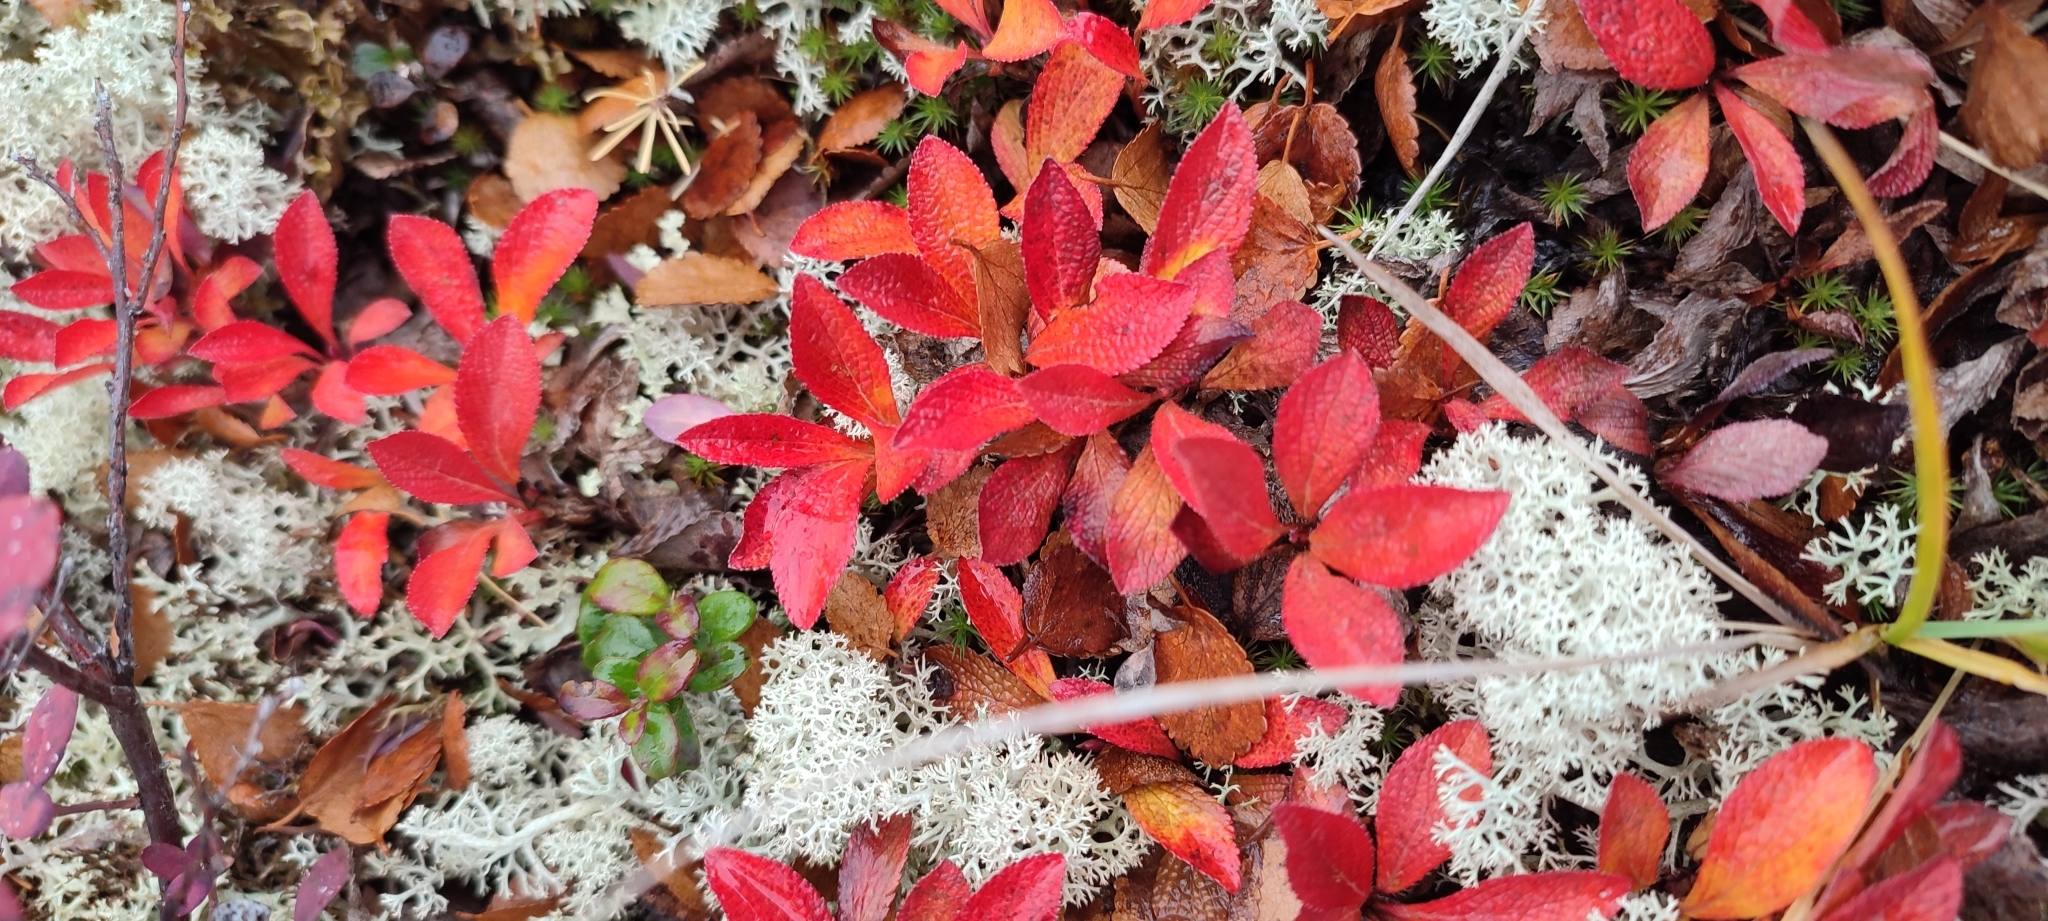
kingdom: Plantae
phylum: Tracheophyta
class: Magnoliopsida
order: Ericales
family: Ericaceae
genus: Arctostaphylos
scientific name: Arctostaphylos alpinus
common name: Alpine bearberry
